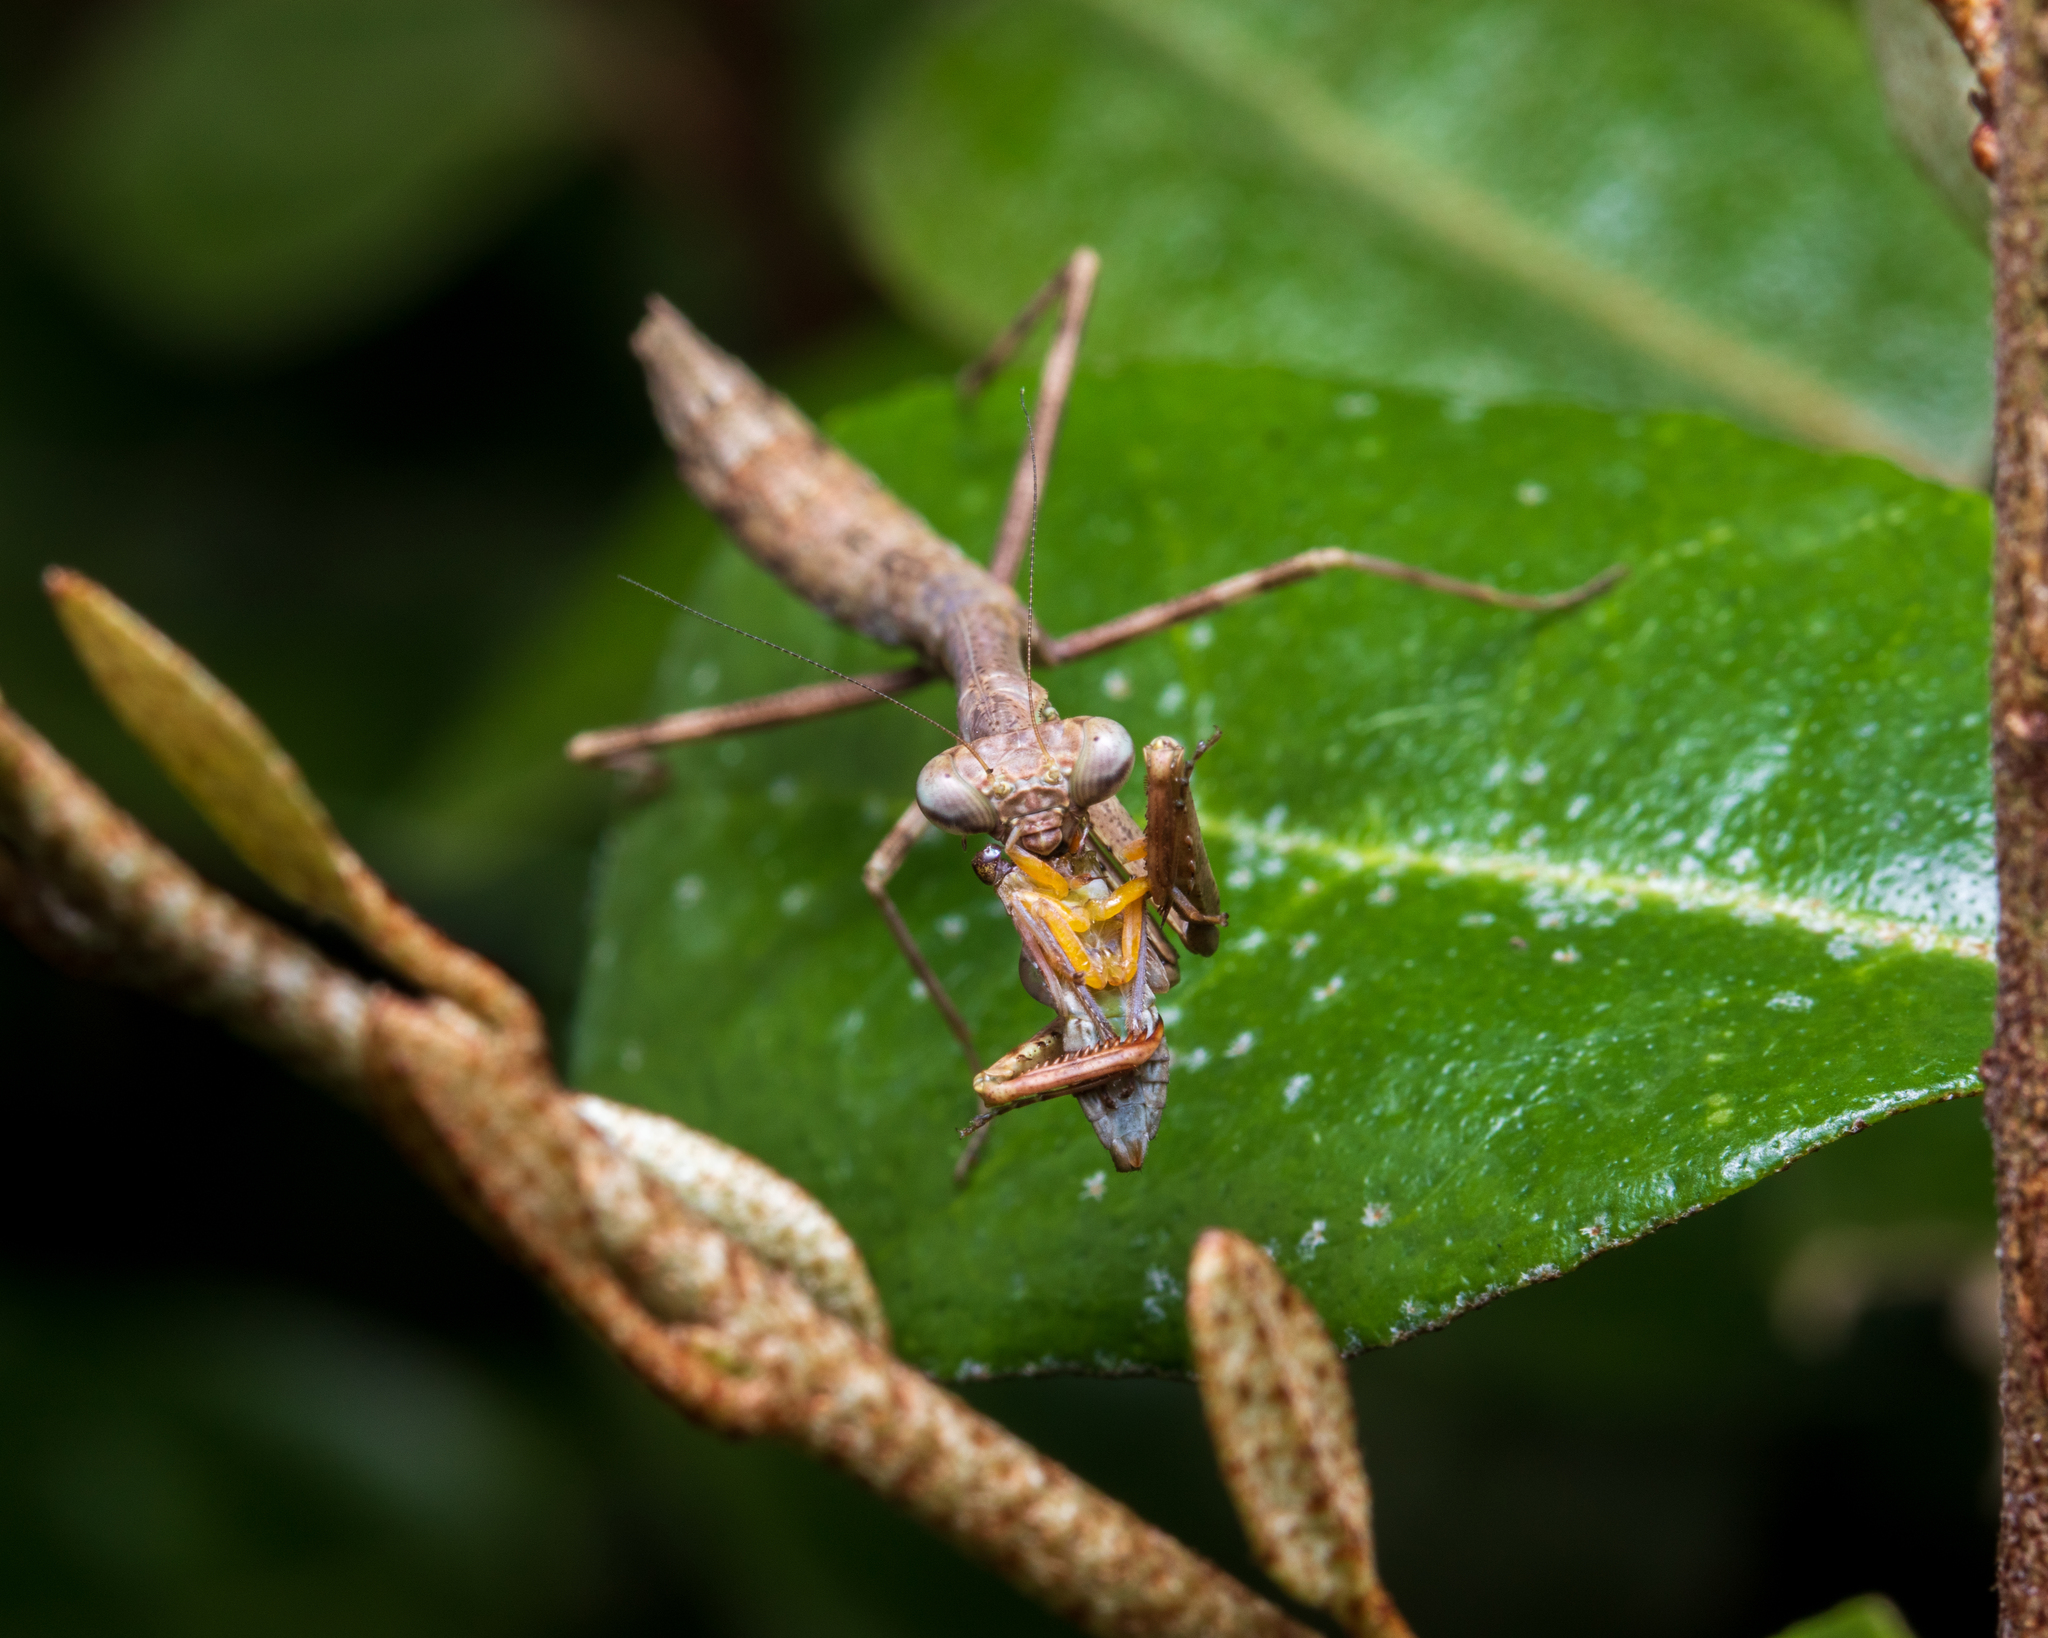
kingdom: Animalia
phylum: Arthropoda
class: Insecta
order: Mantodea
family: Mantidae
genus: Stagmomantis
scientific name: Stagmomantis carolina
